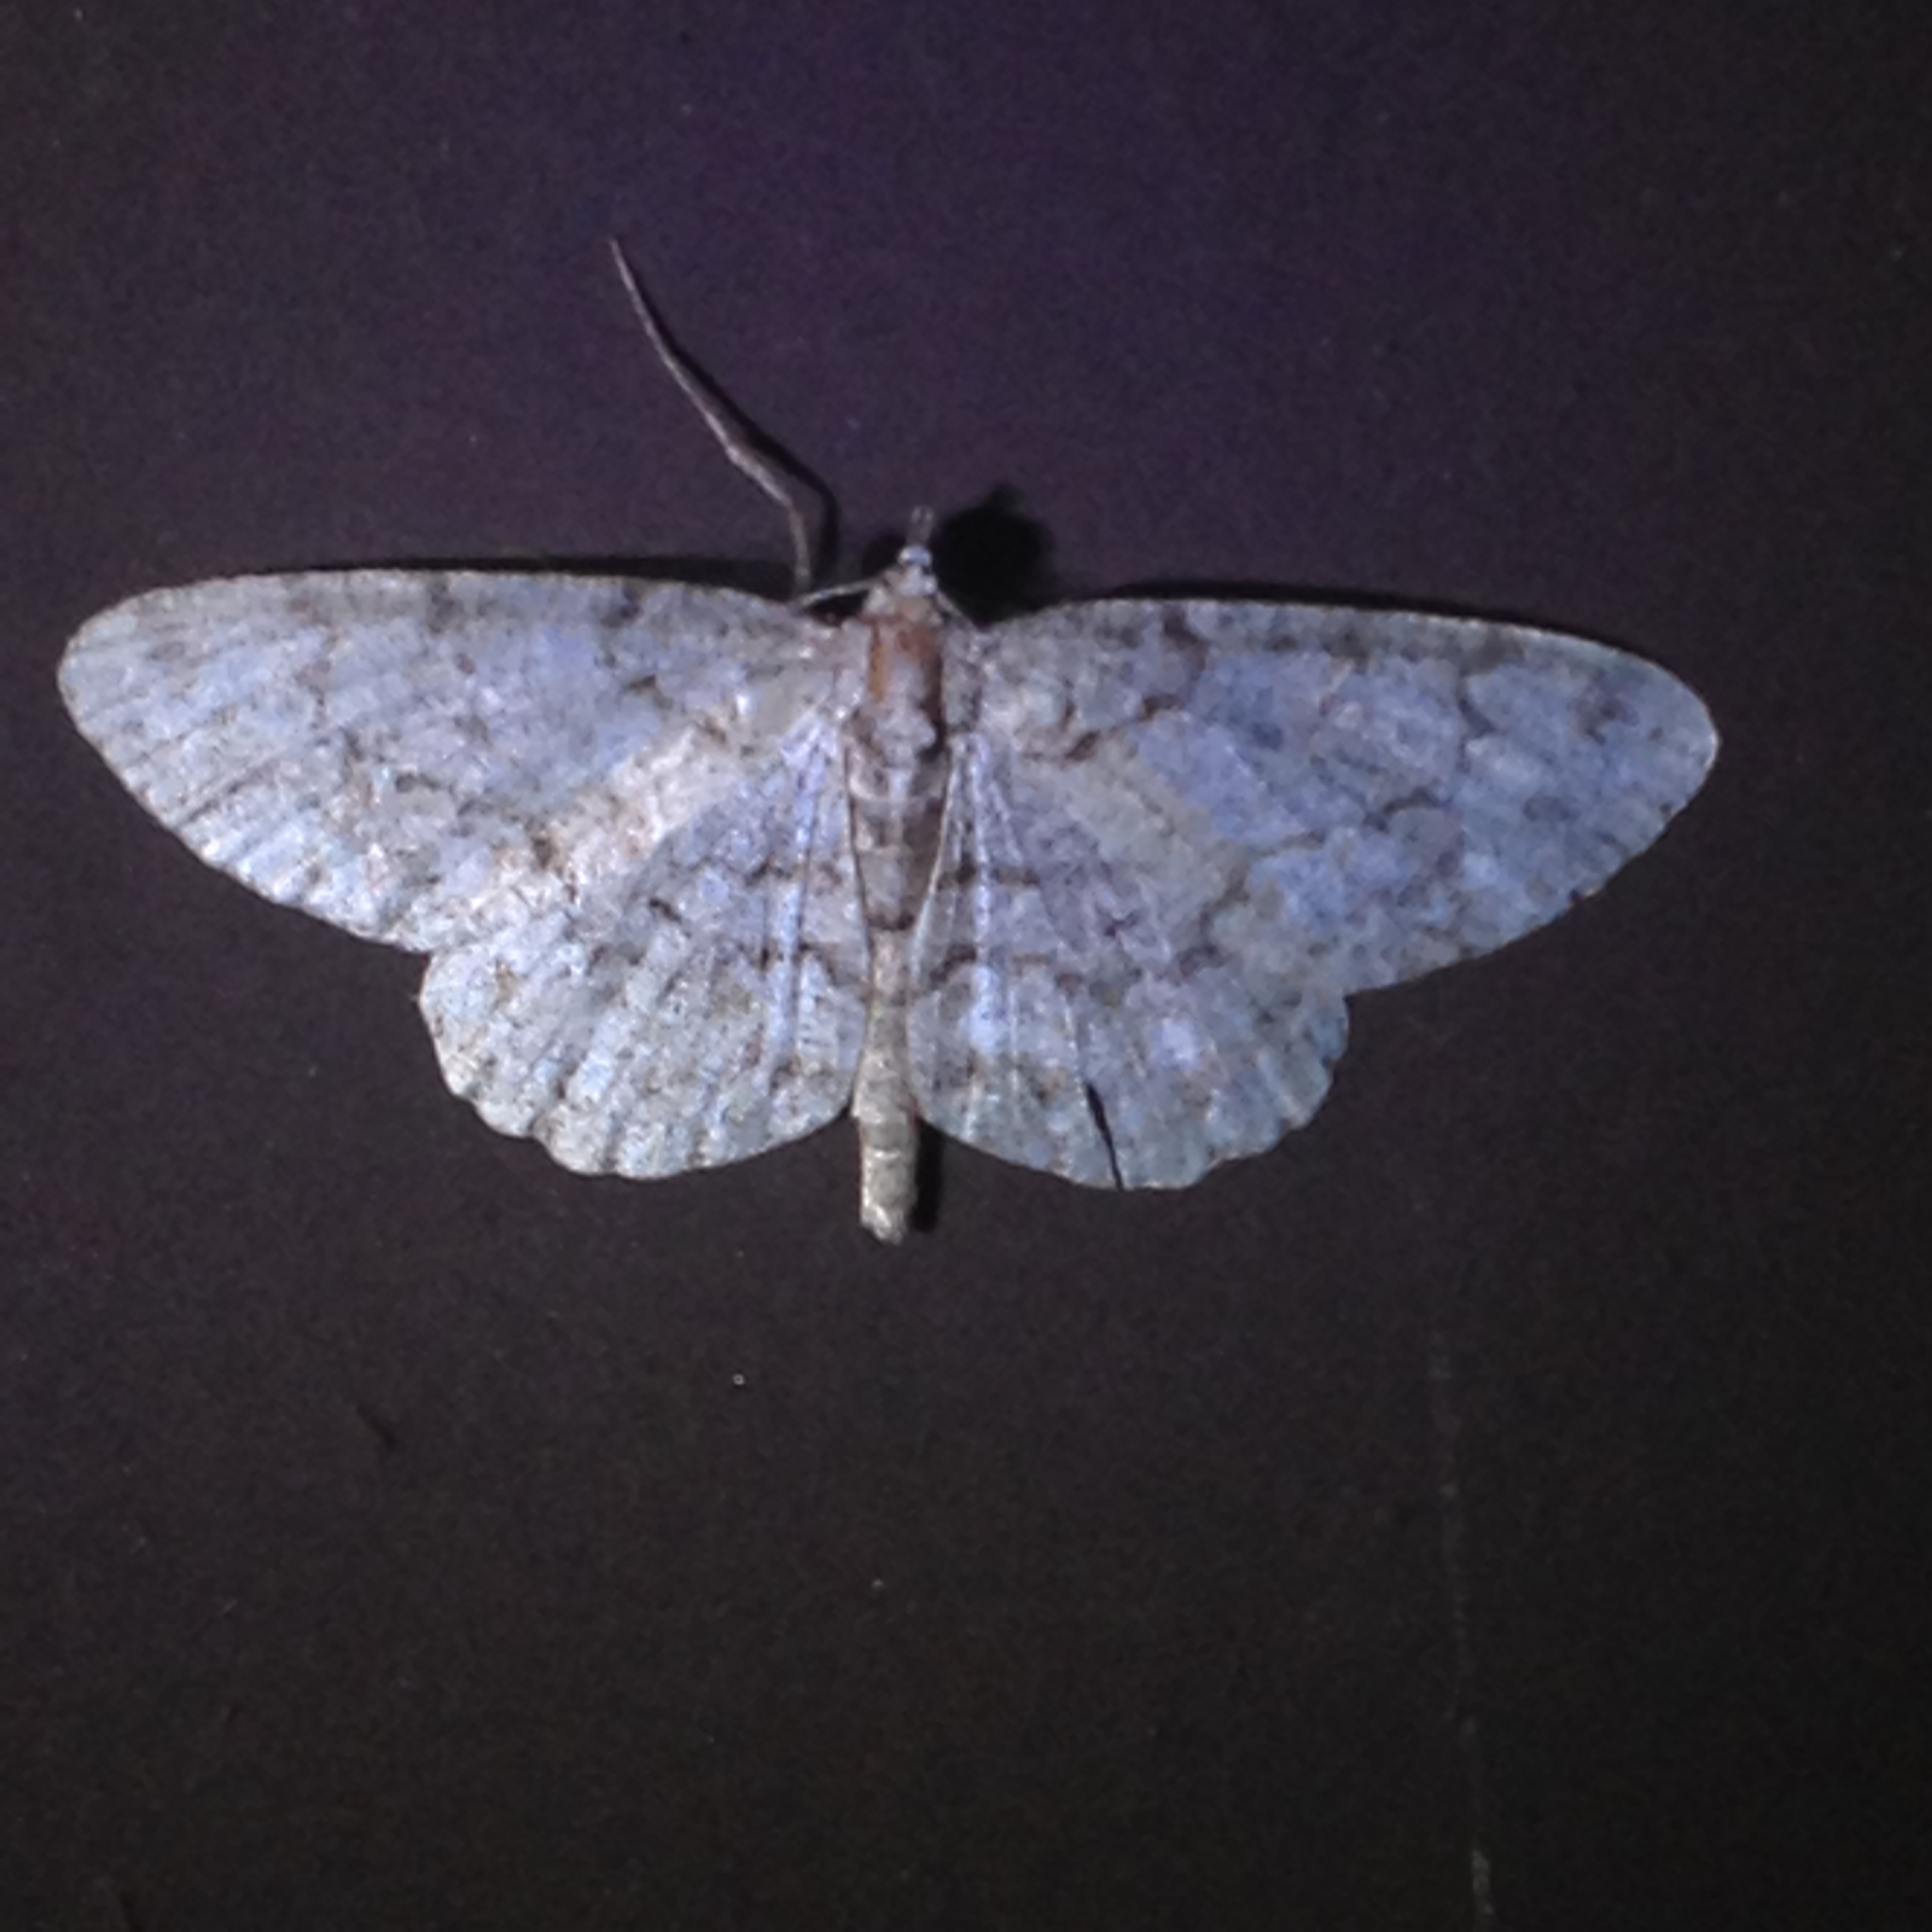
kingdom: Animalia
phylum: Arthropoda
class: Insecta
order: Lepidoptera
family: Geometridae
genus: Protoboarmia
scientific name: Protoboarmia porcelaria
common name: Porcelain gray
